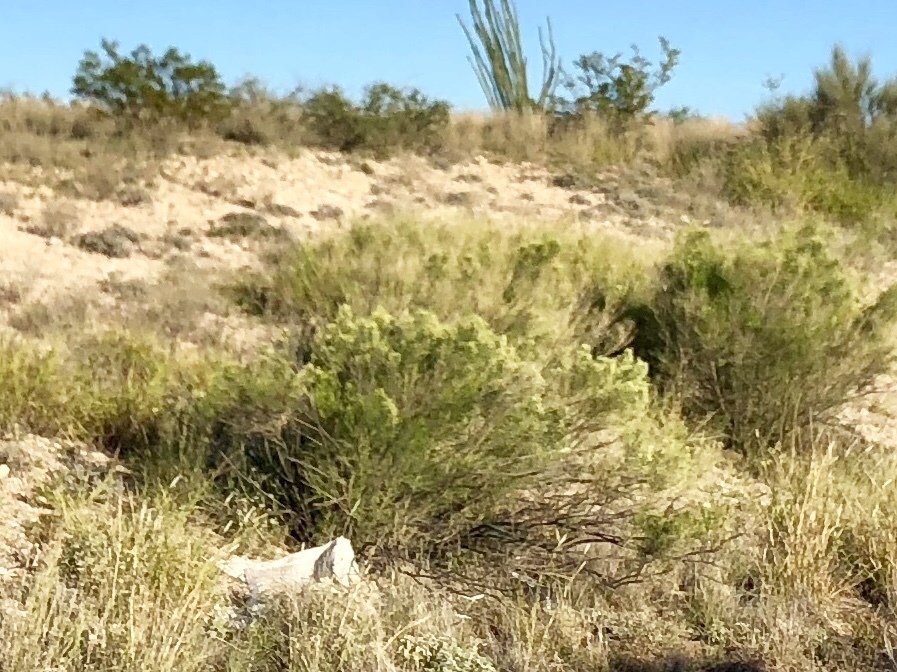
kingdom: Plantae
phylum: Tracheophyta
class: Magnoliopsida
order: Asterales
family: Asteraceae
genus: Baccharis
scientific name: Baccharis sarothroides
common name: Desert-broom
